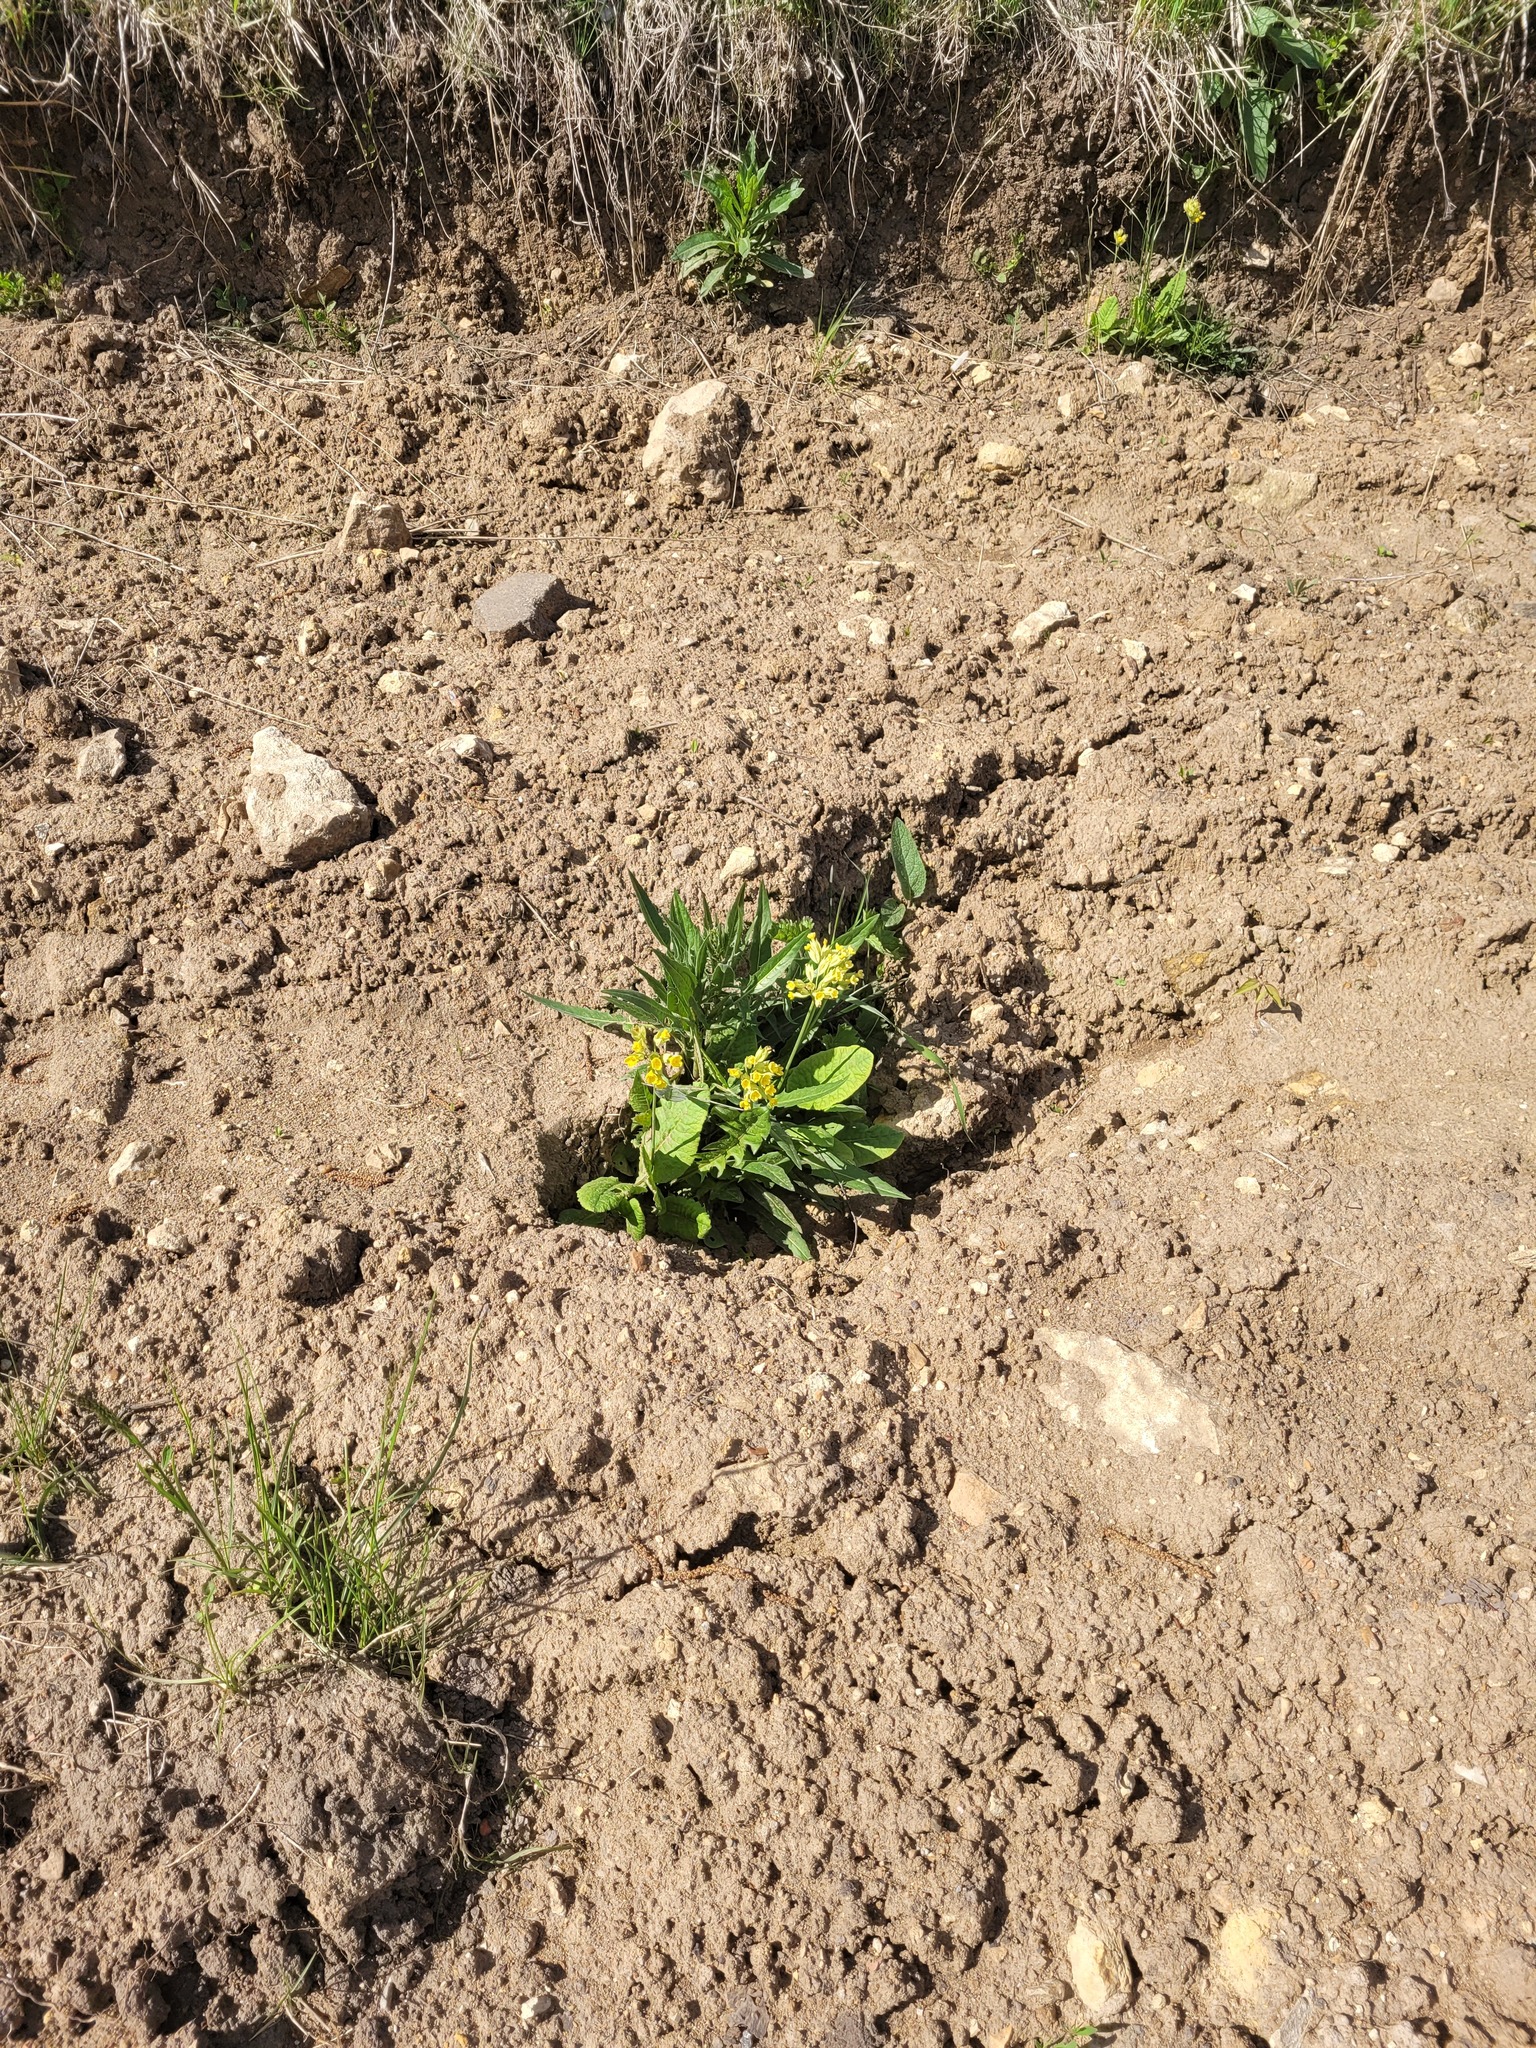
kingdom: Plantae
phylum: Tracheophyta
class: Magnoliopsida
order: Ericales
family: Primulaceae
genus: Primula
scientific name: Primula veris
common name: Cowslip
